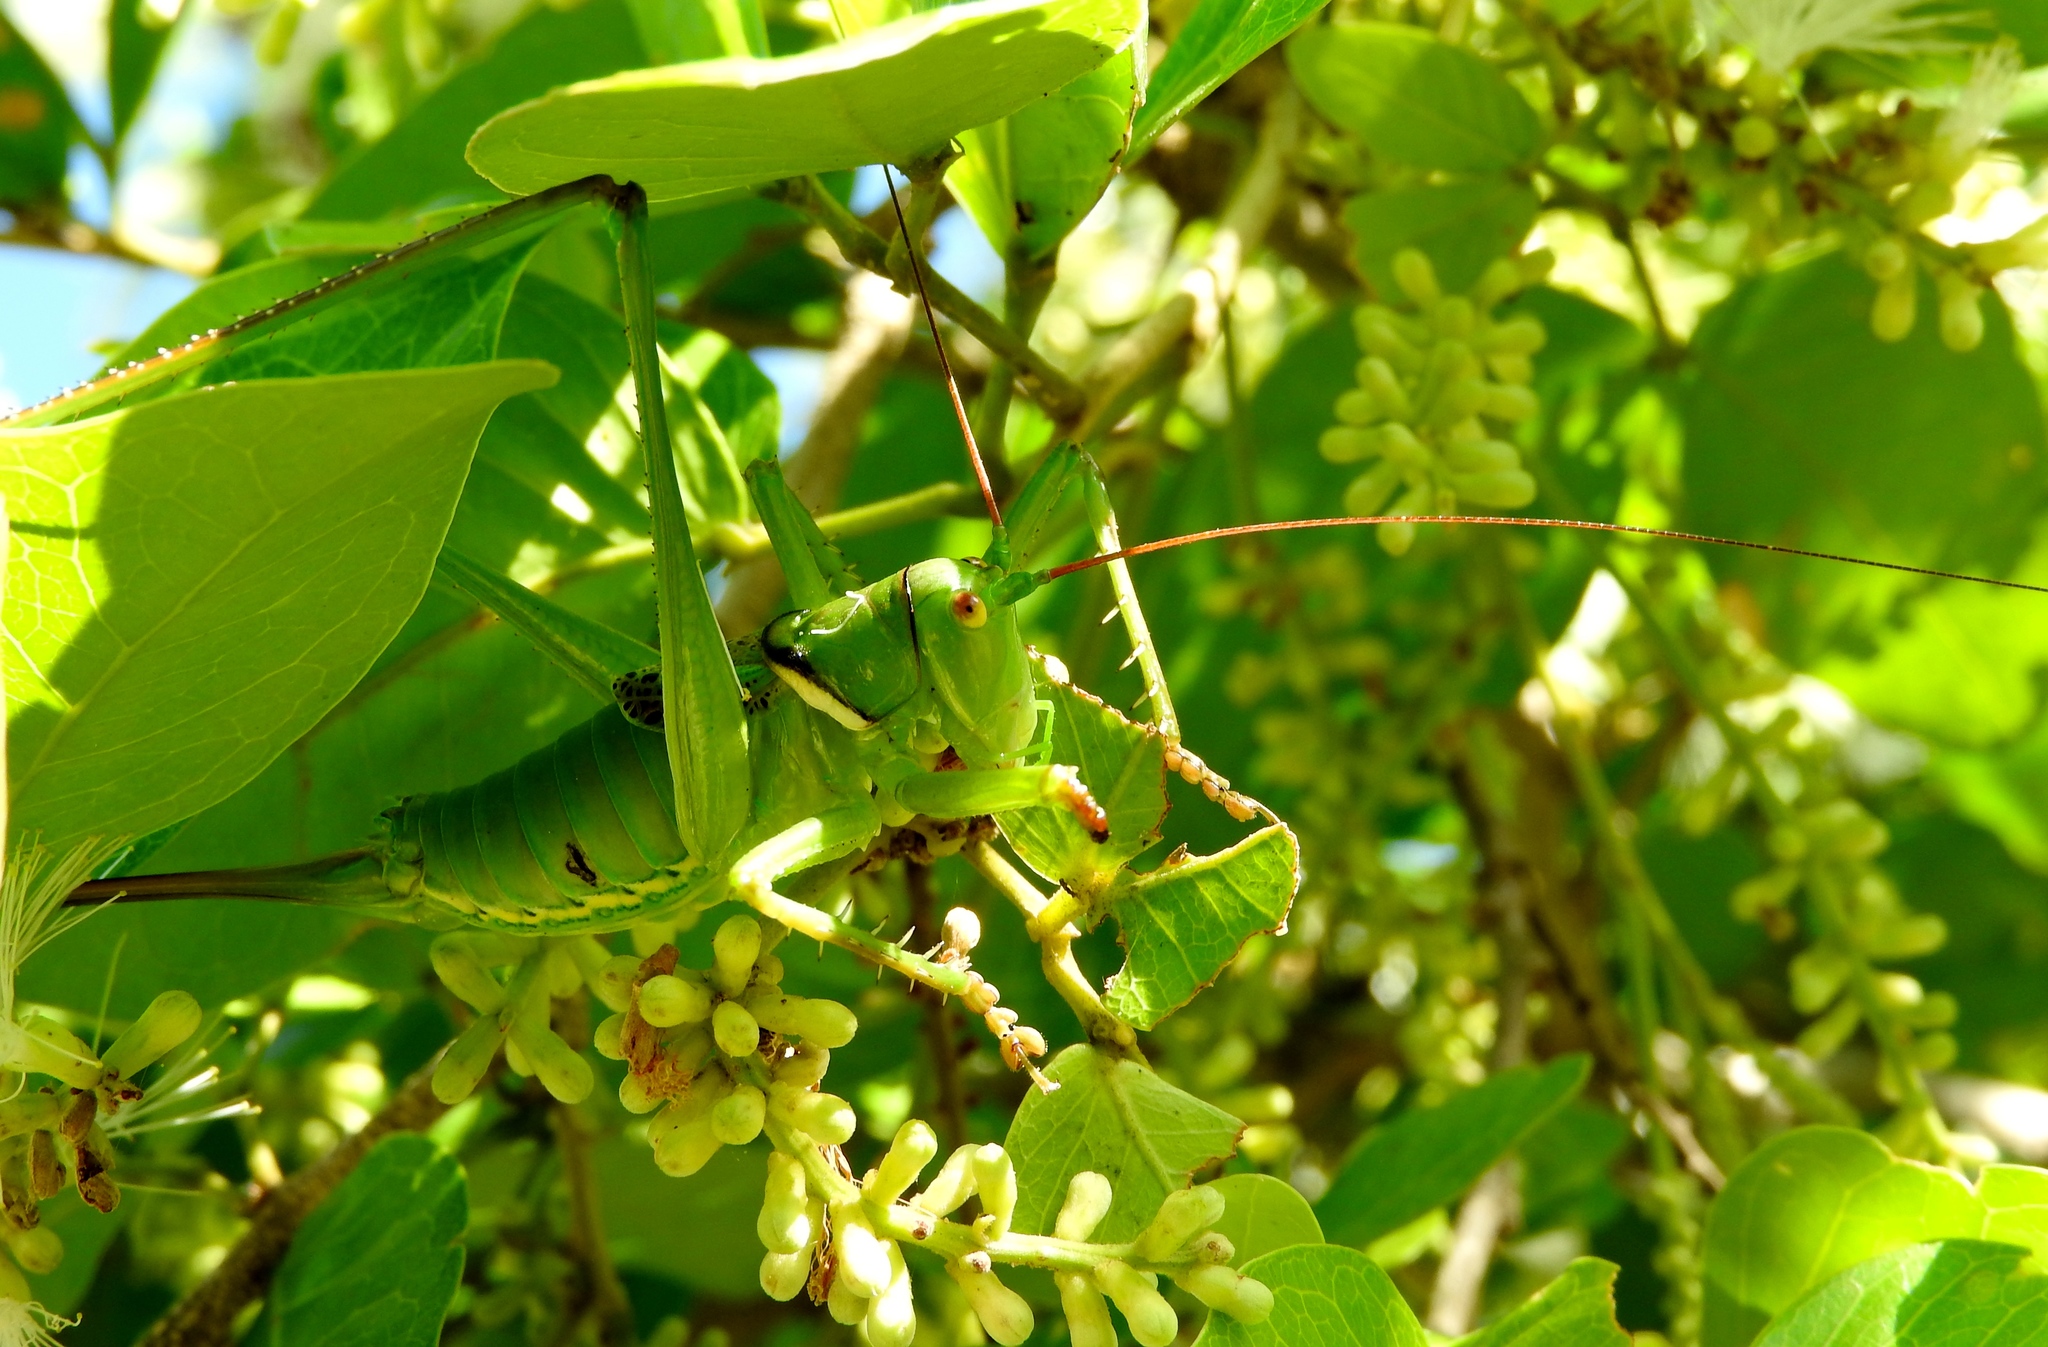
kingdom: Animalia
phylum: Arthropoda
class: Insecta
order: Orthoptera
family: Tettigoniidae
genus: Neobarrettia
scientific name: Neobarrettia sinaloae
